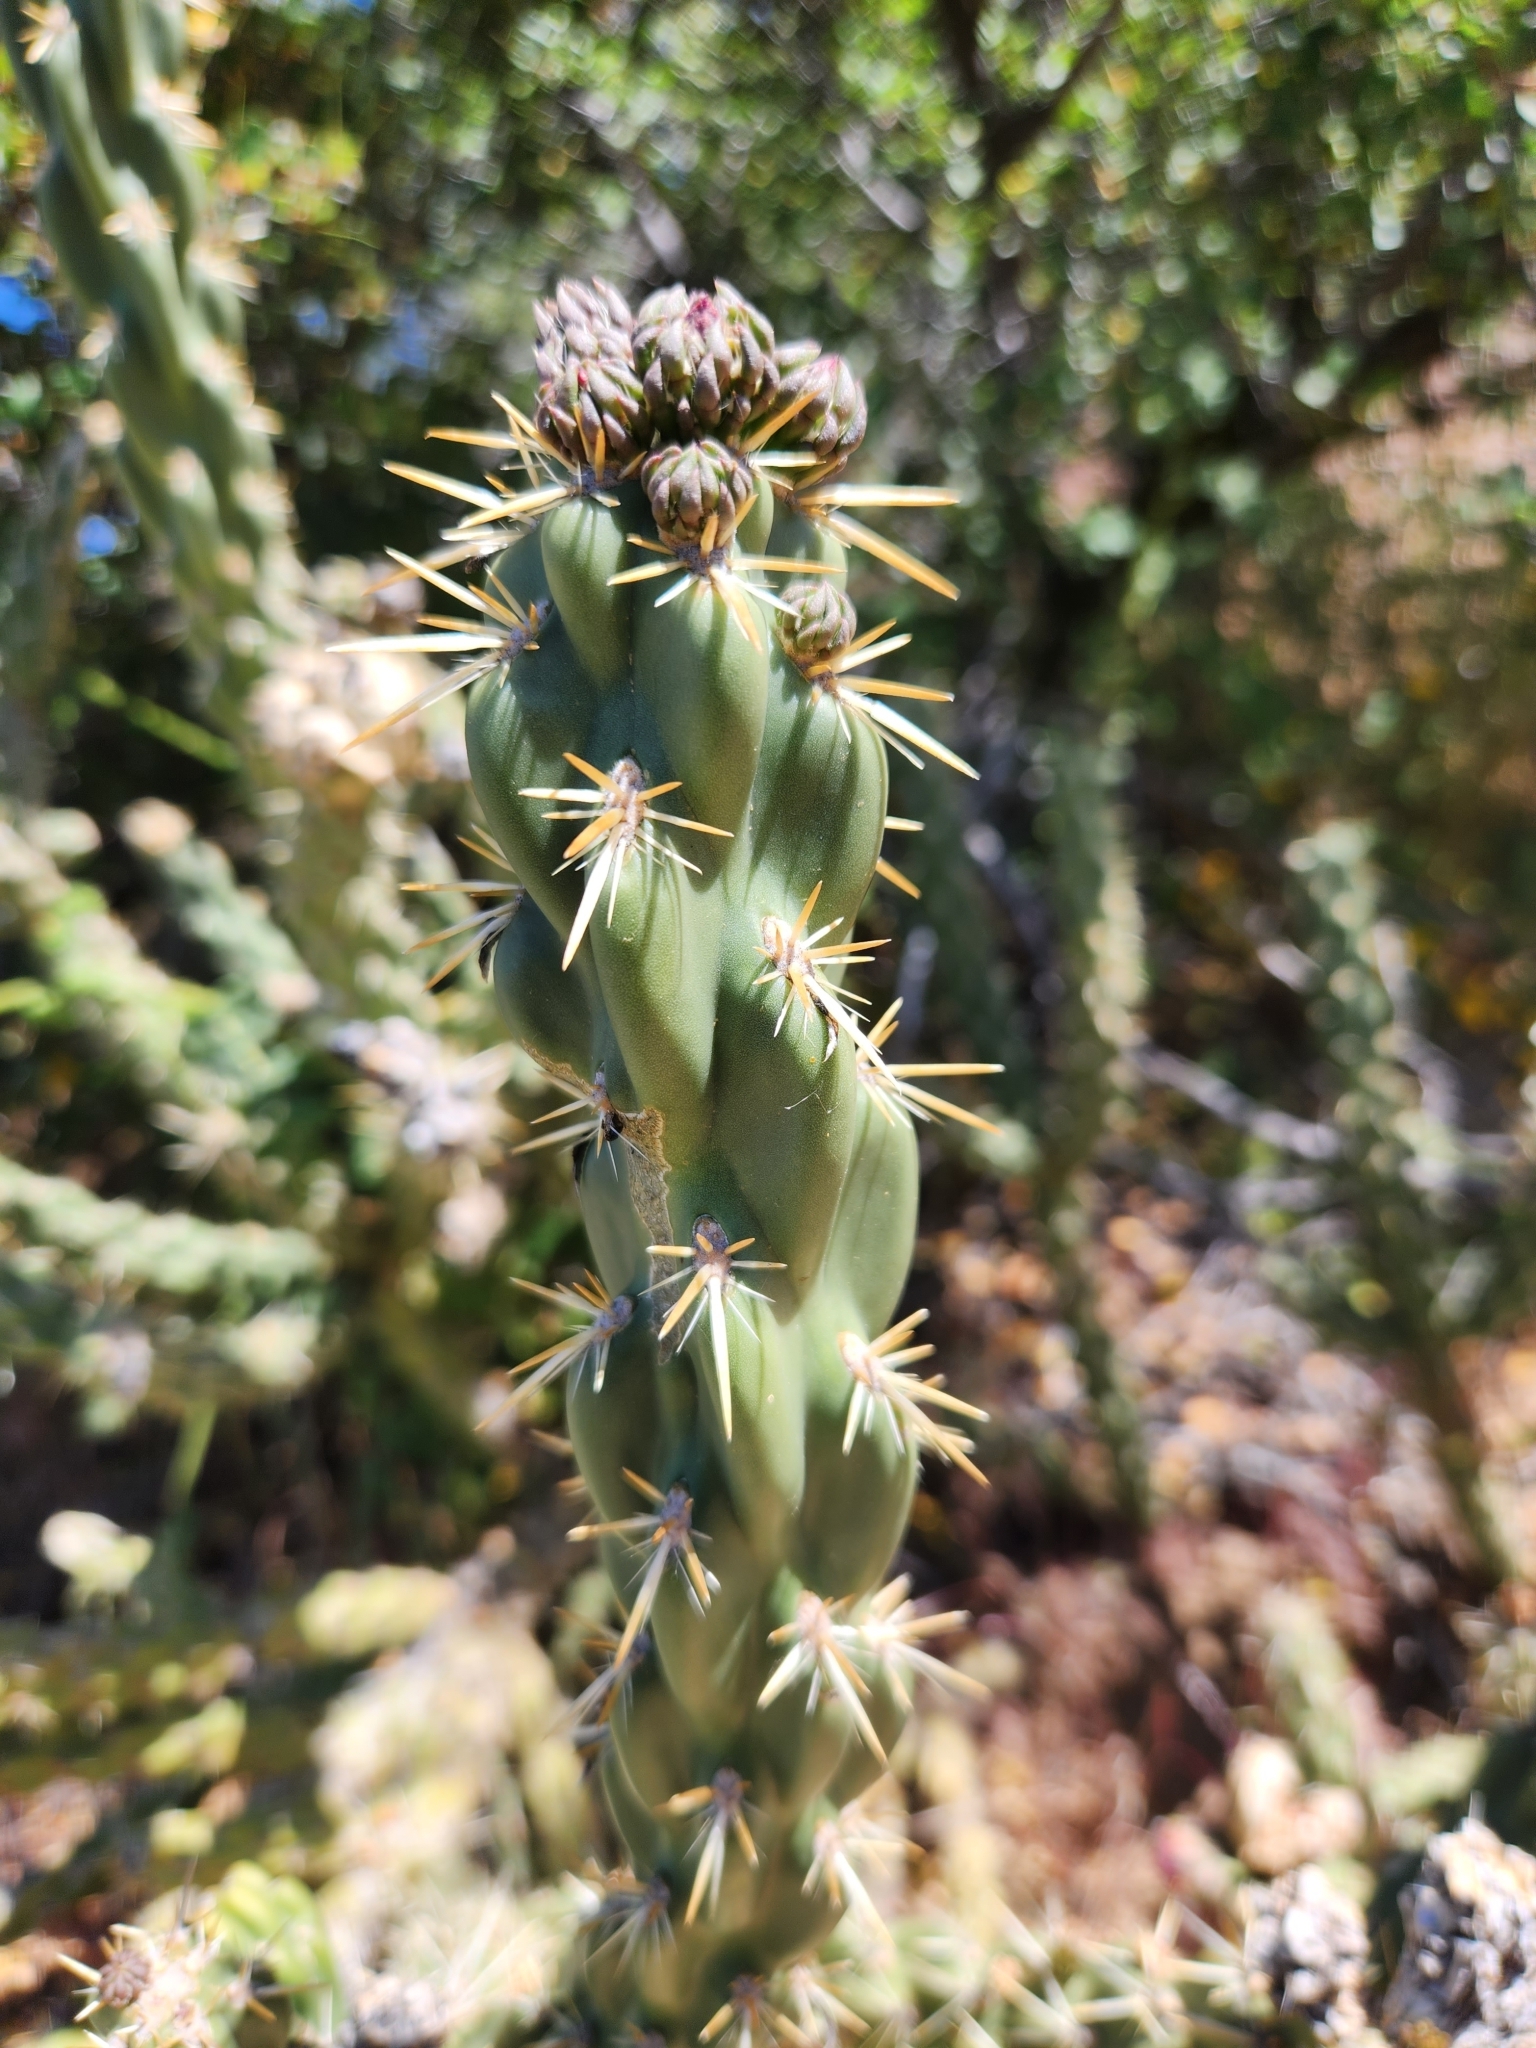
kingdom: Plantae
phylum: Tracheophyta
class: Magnoliopsida
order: Caryophyllales
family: Cactaceae
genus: Cylindropuntia
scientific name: Cylindropuntia bernardina
